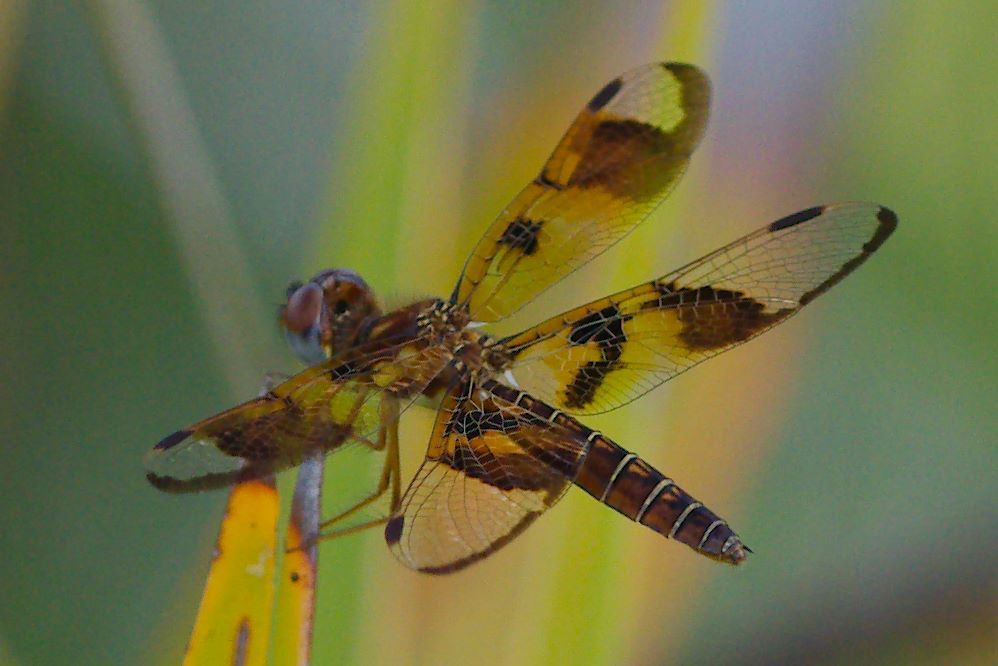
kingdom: Animalia
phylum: Arthropoda
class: Insecta
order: Odonata
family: Libellulidae
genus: Perithemis
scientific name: Perithemis tenera
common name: Eastern amberwing
